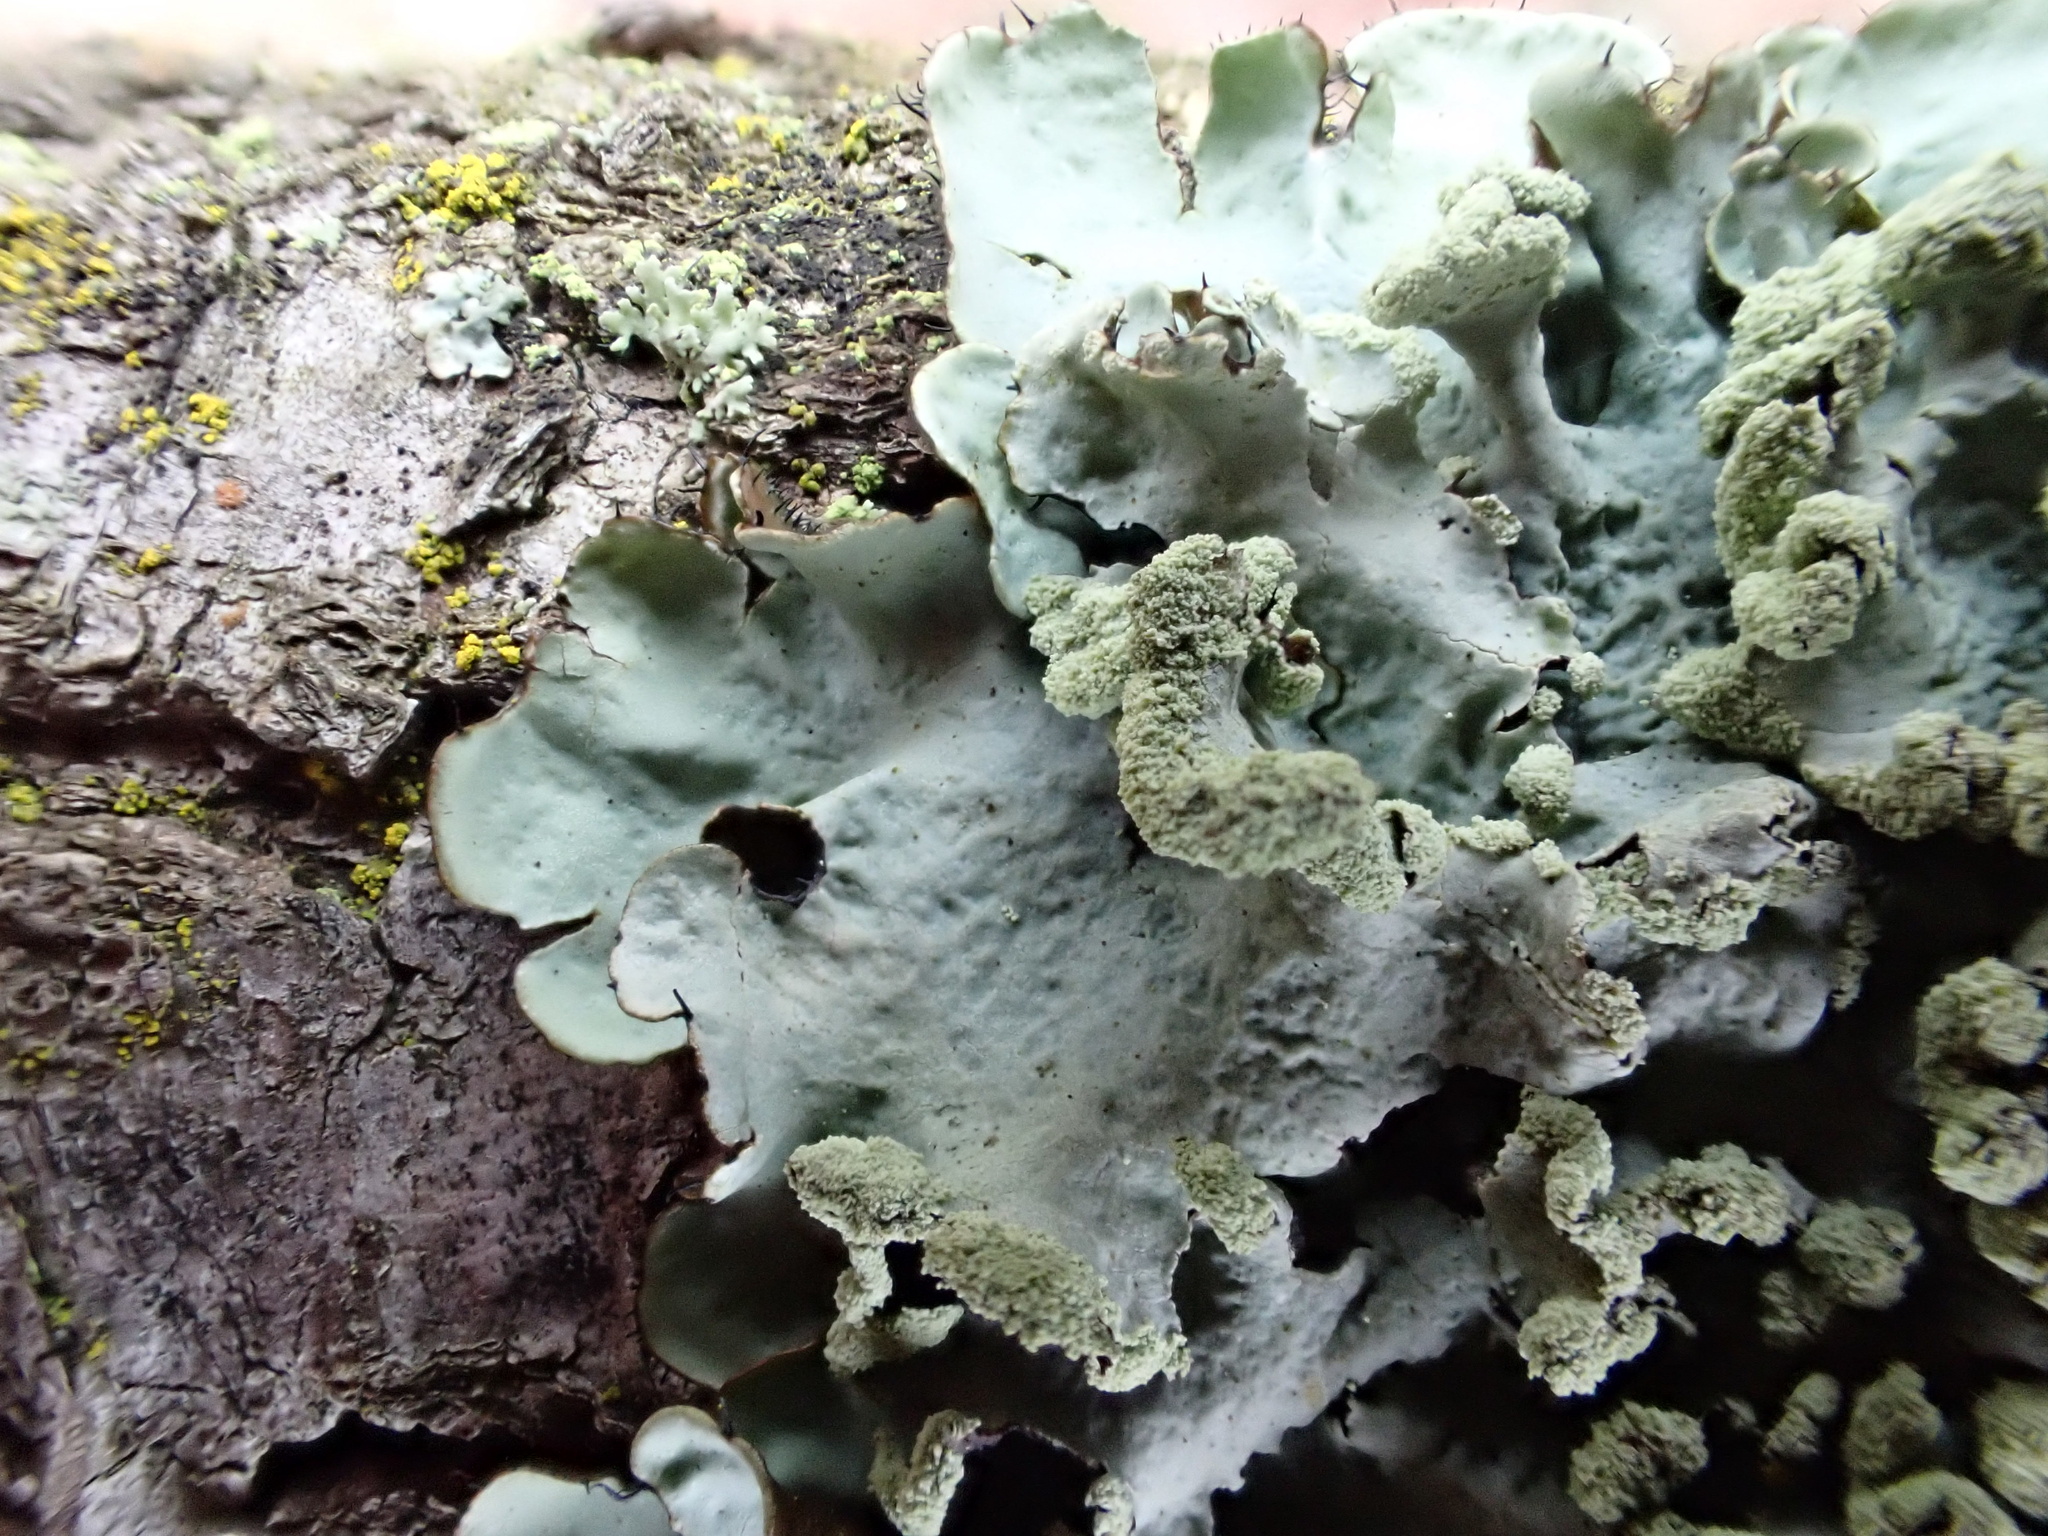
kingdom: Fungi
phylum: Ascomycota
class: Lecanoromycetes
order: Lecanorales
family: Parmeliaceae
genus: Parmotrema
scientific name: Parmotrema perlatum
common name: Black stone flower
